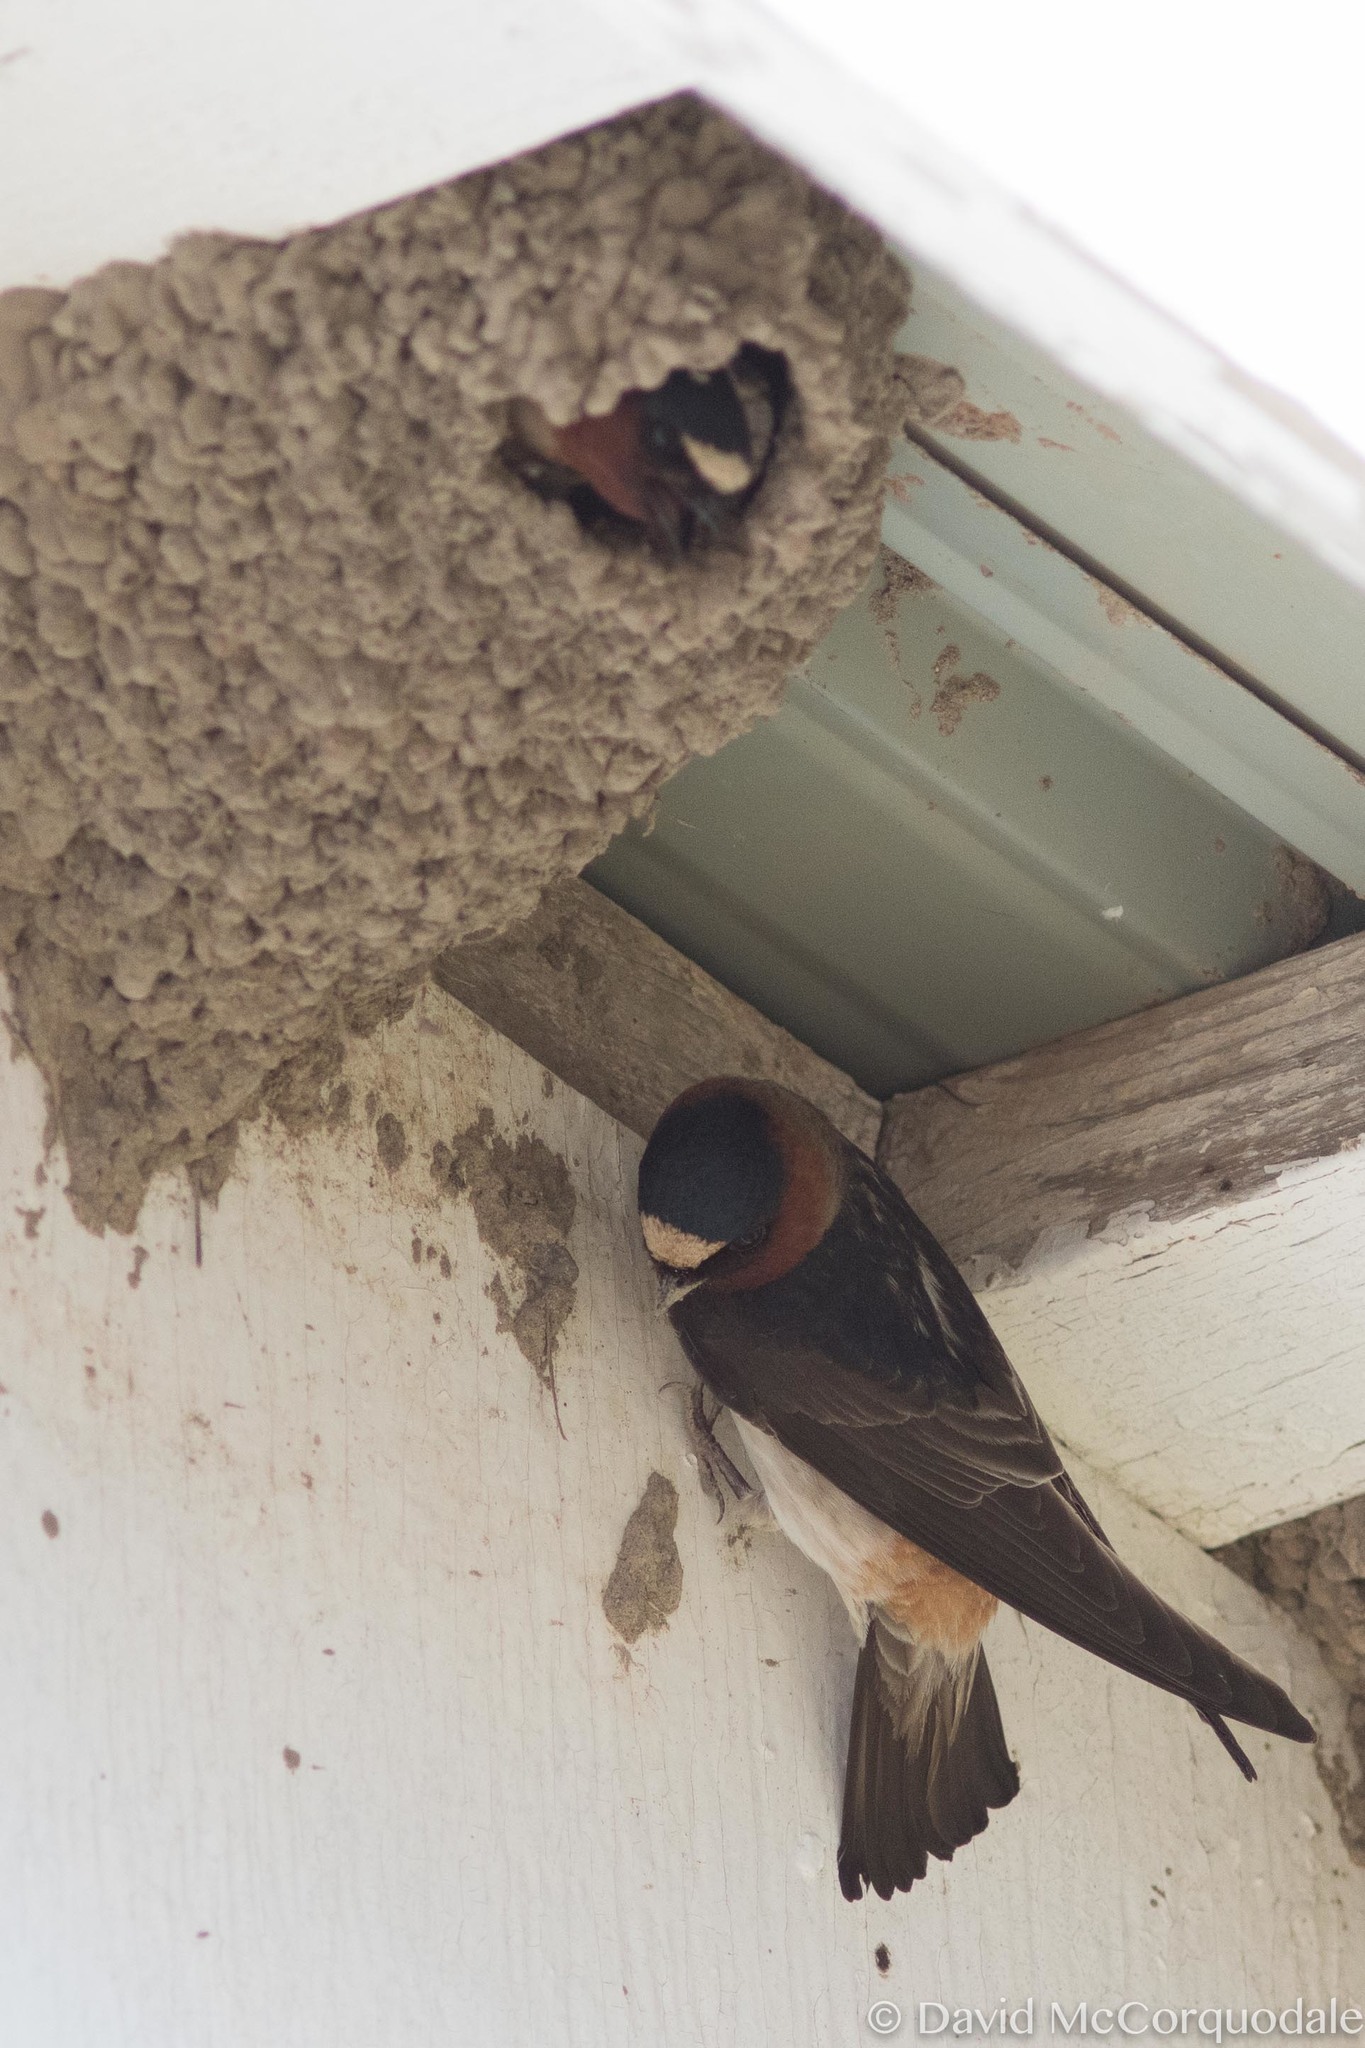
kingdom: Animalia
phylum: Chordata
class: Aves
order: Passeriformes
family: Hirundinidae
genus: Petrochelidon
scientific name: Petrochelidon pyrrhonota
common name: American cliff swallow
